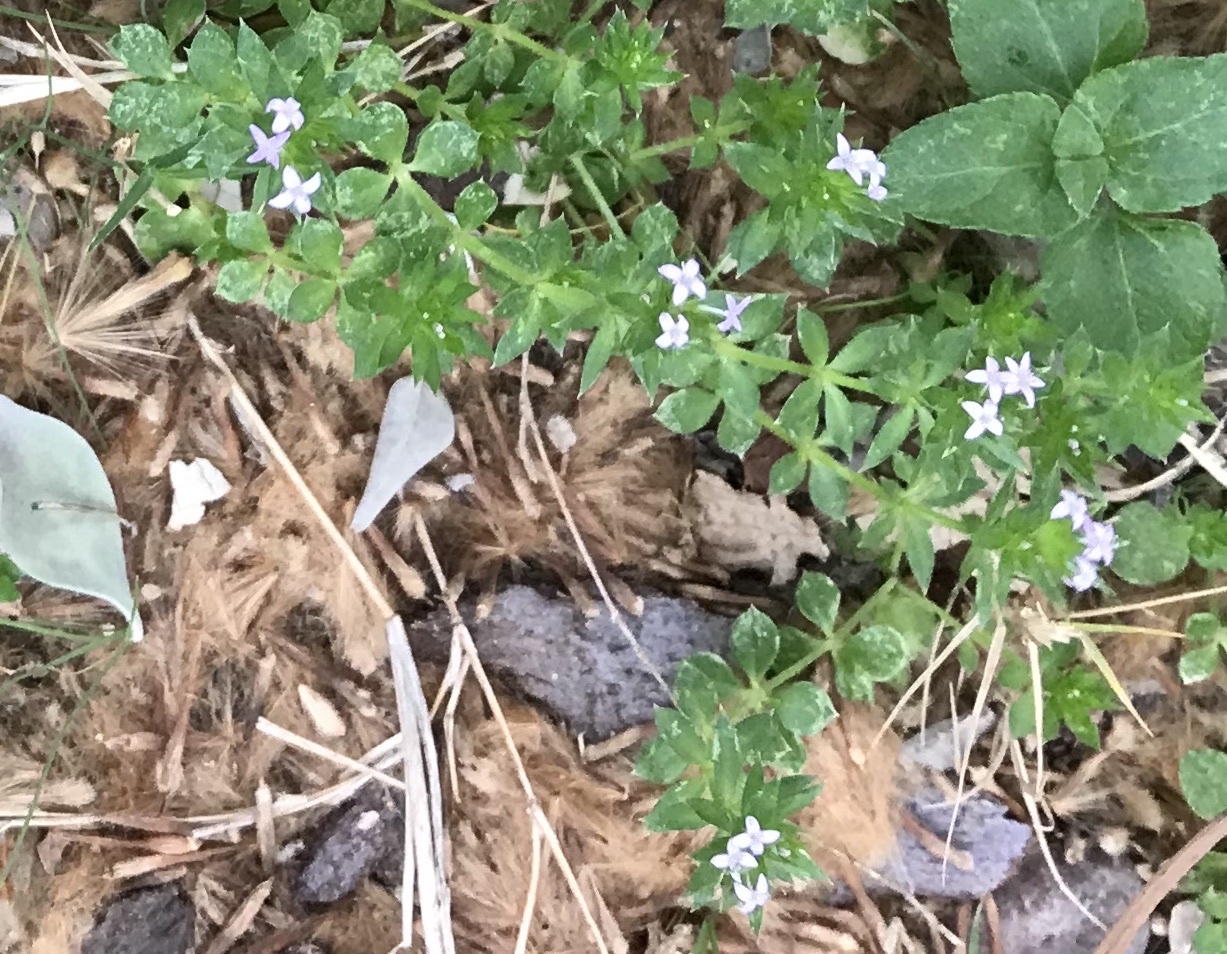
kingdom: Plantae
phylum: Tracheophyta
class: Magnoliopsida
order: Gentianales
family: Rubiaceae
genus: Sherardia
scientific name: Sherardia arvensis
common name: Field madder
